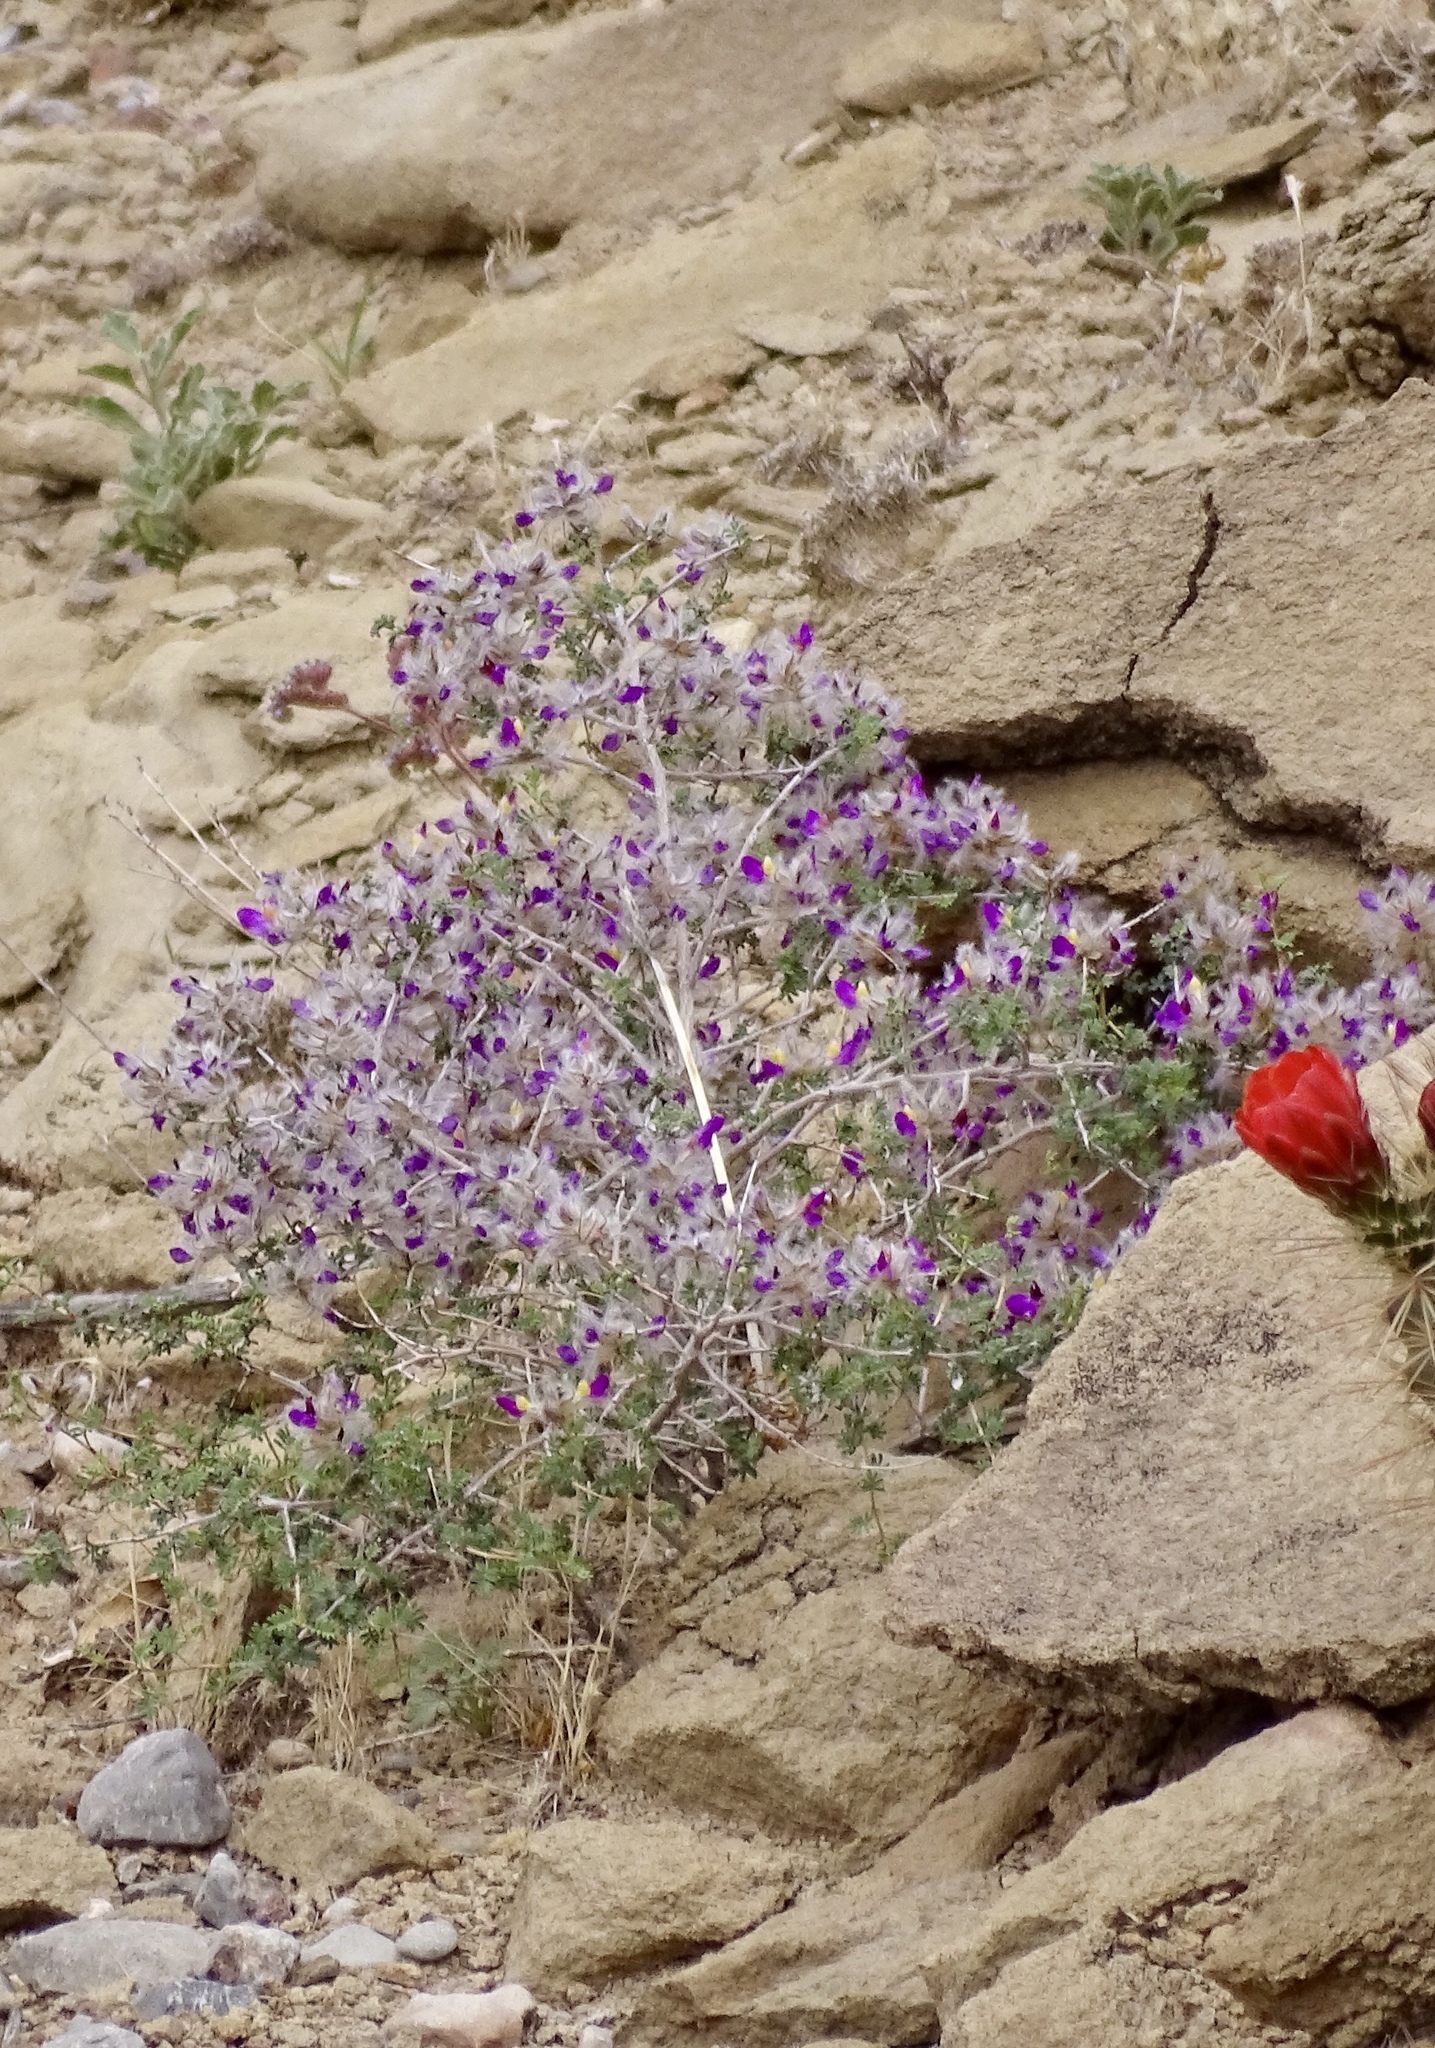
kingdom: Plantae
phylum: Tracheophyta
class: Magnoliopsida
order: Fabales
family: Fabaceae
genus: Dalea
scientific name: Dalea formosa
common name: Feather-plume dalea
